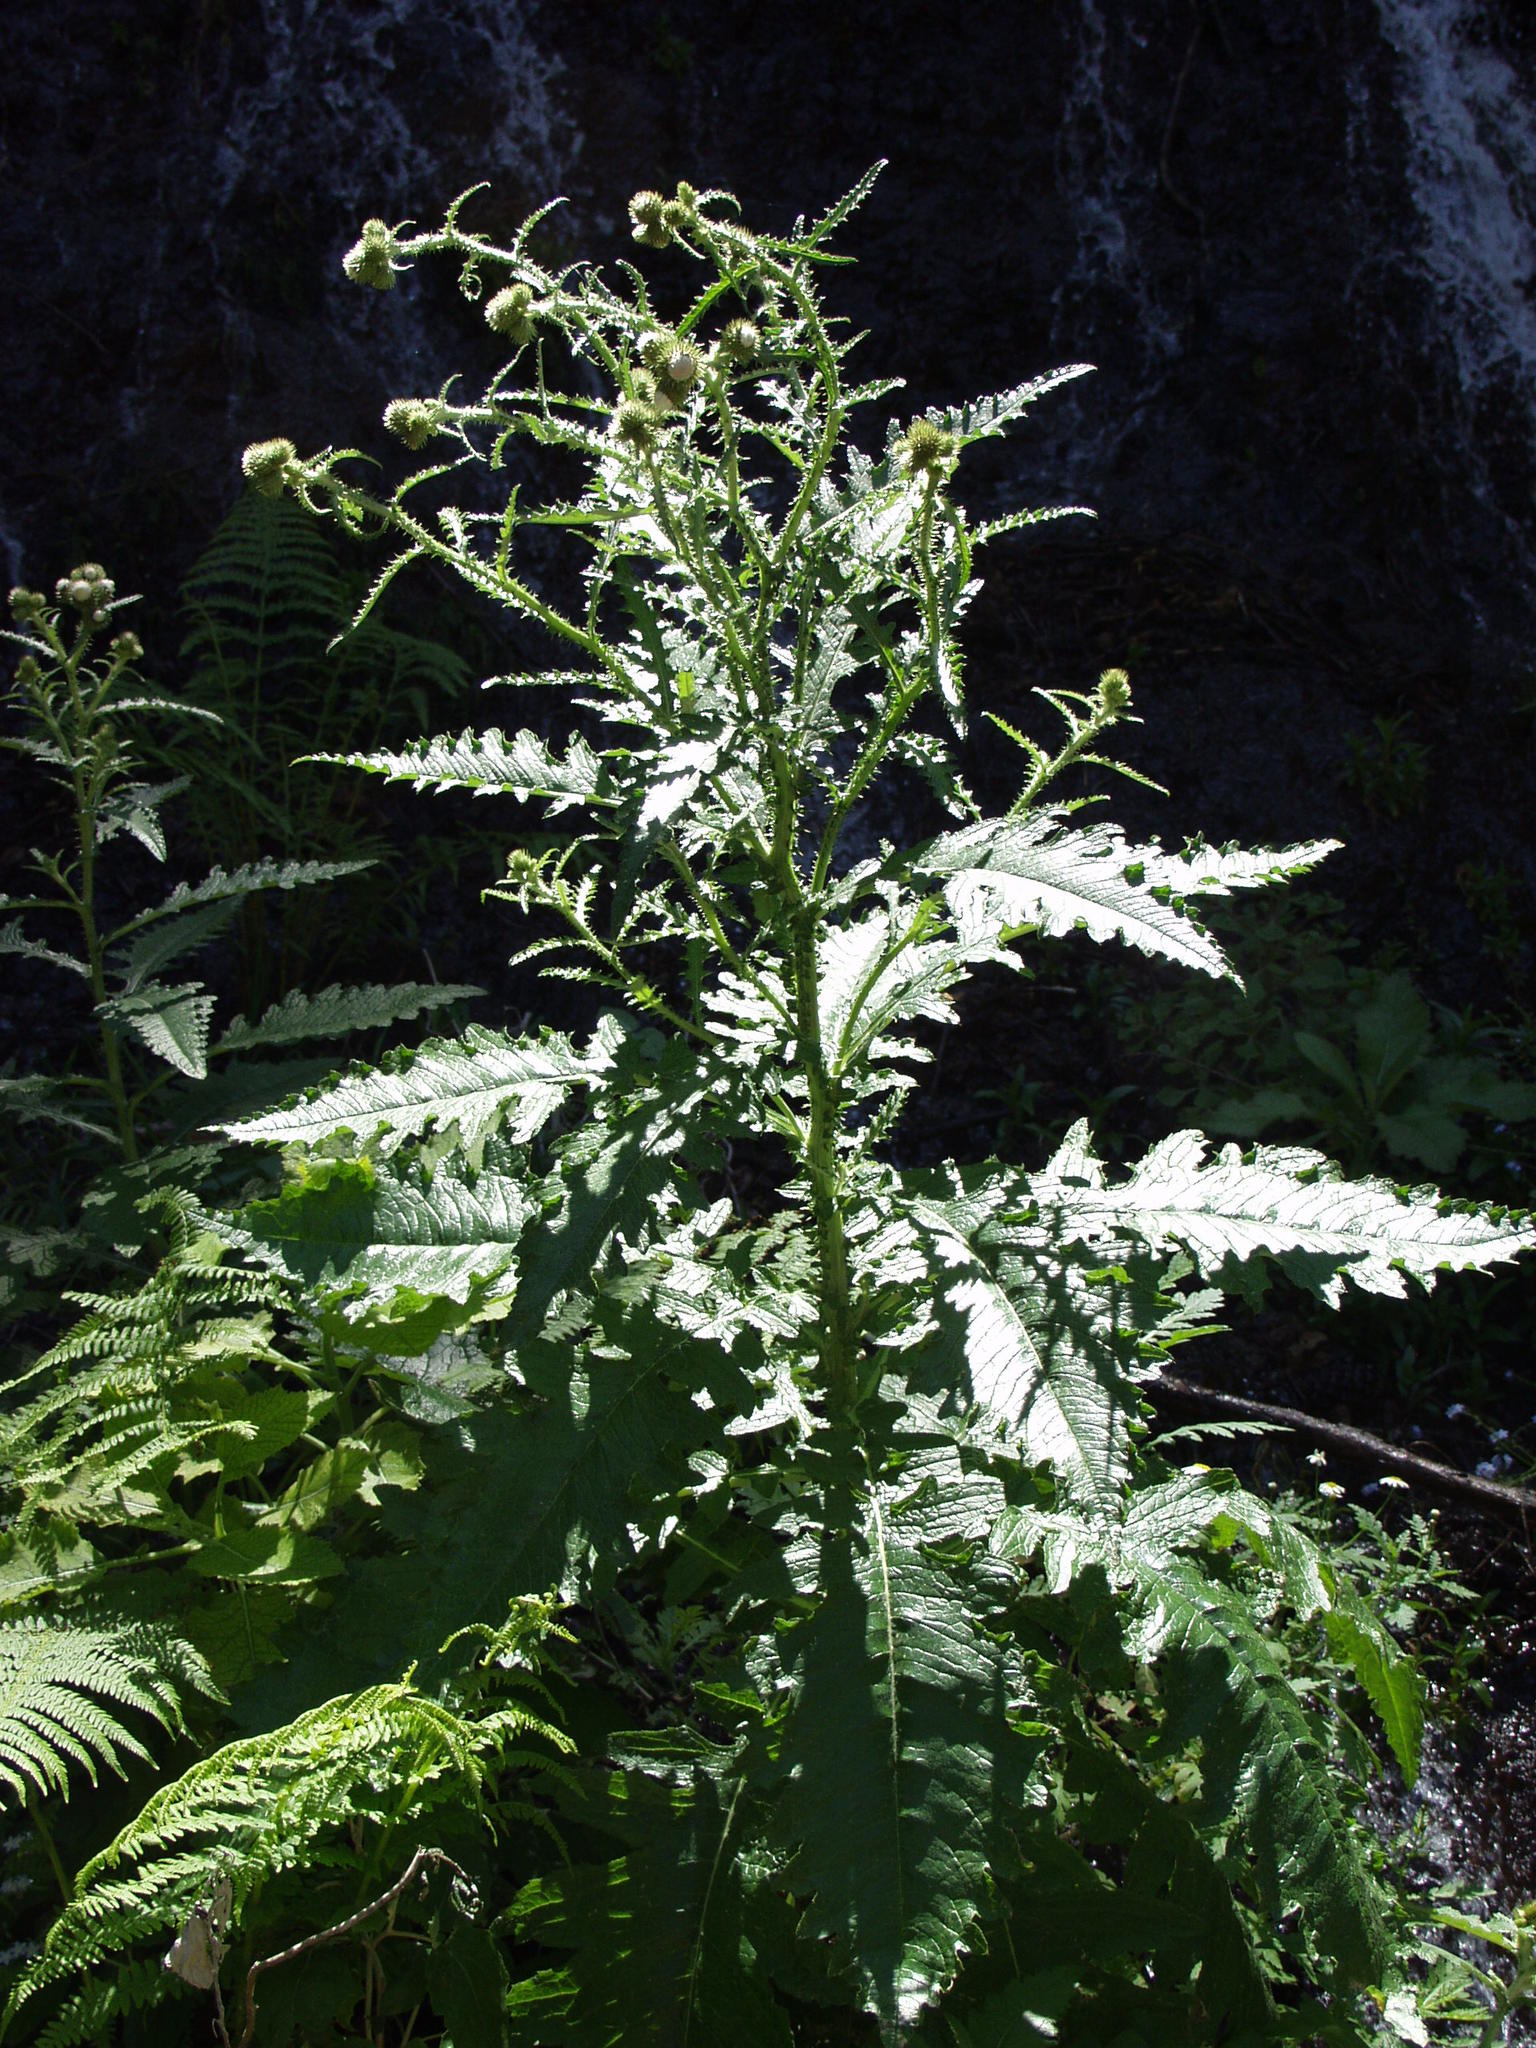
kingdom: Plantae
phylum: Tracheophyta
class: Magnoliopsida
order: Asterales
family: Asteraceae
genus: Carduus
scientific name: Carduus clavulatus
